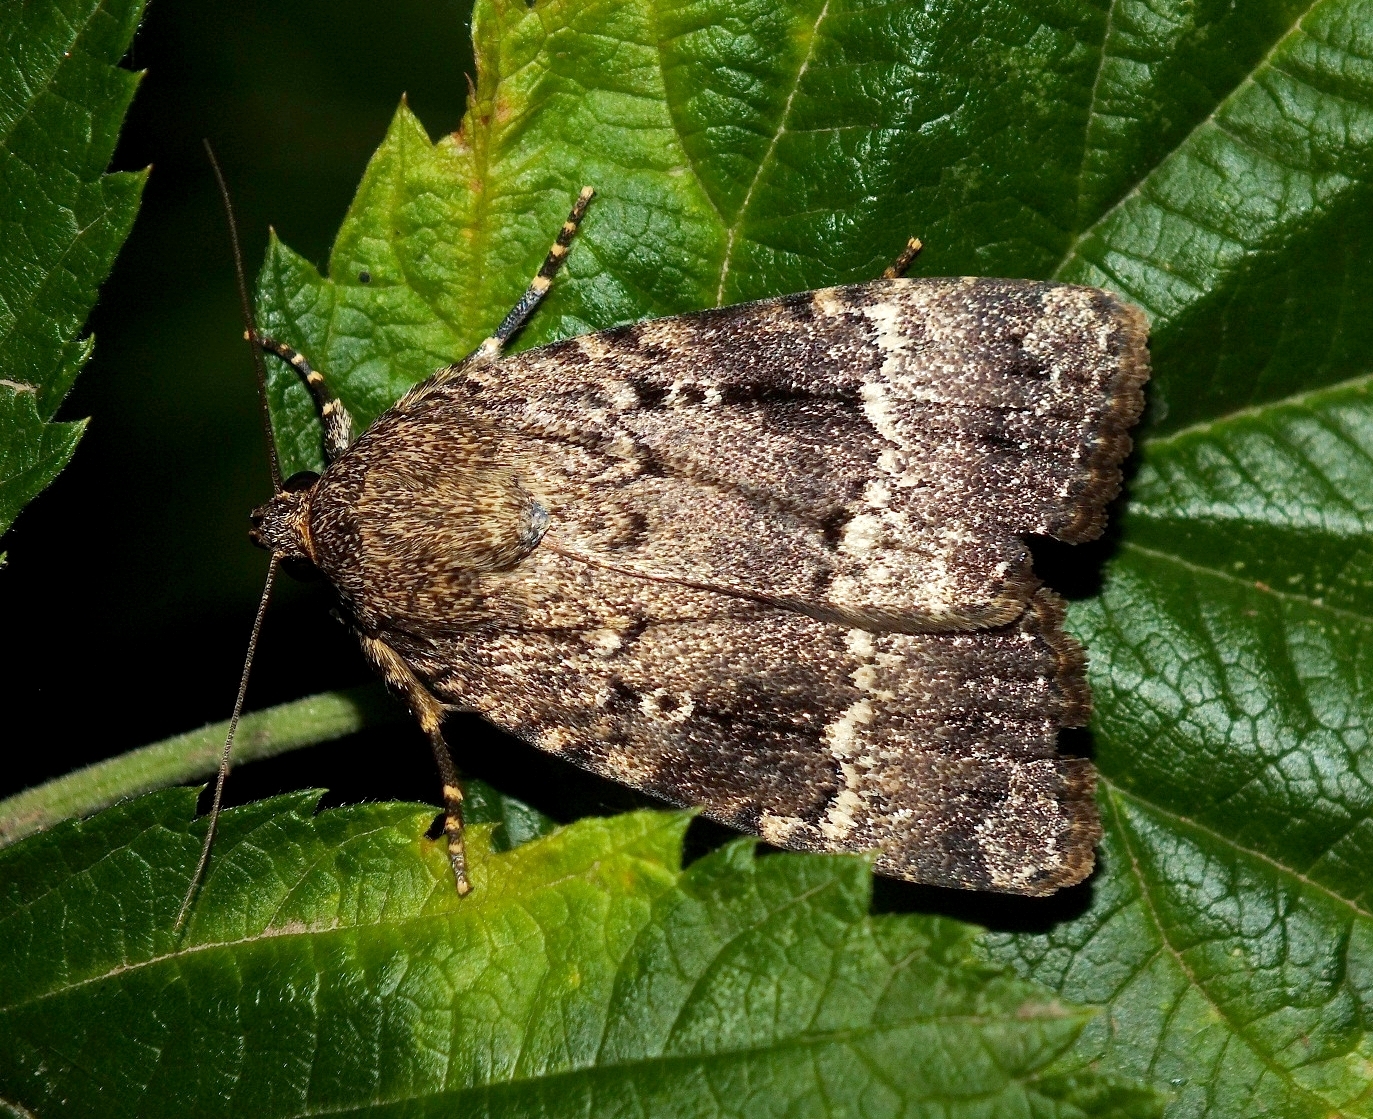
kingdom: Animalia
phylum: Arthropoda
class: Insecta
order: Lepidoptera
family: Noctuidae
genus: Amphipyra
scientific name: Amphipyra pyramidea
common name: Copper underwing
